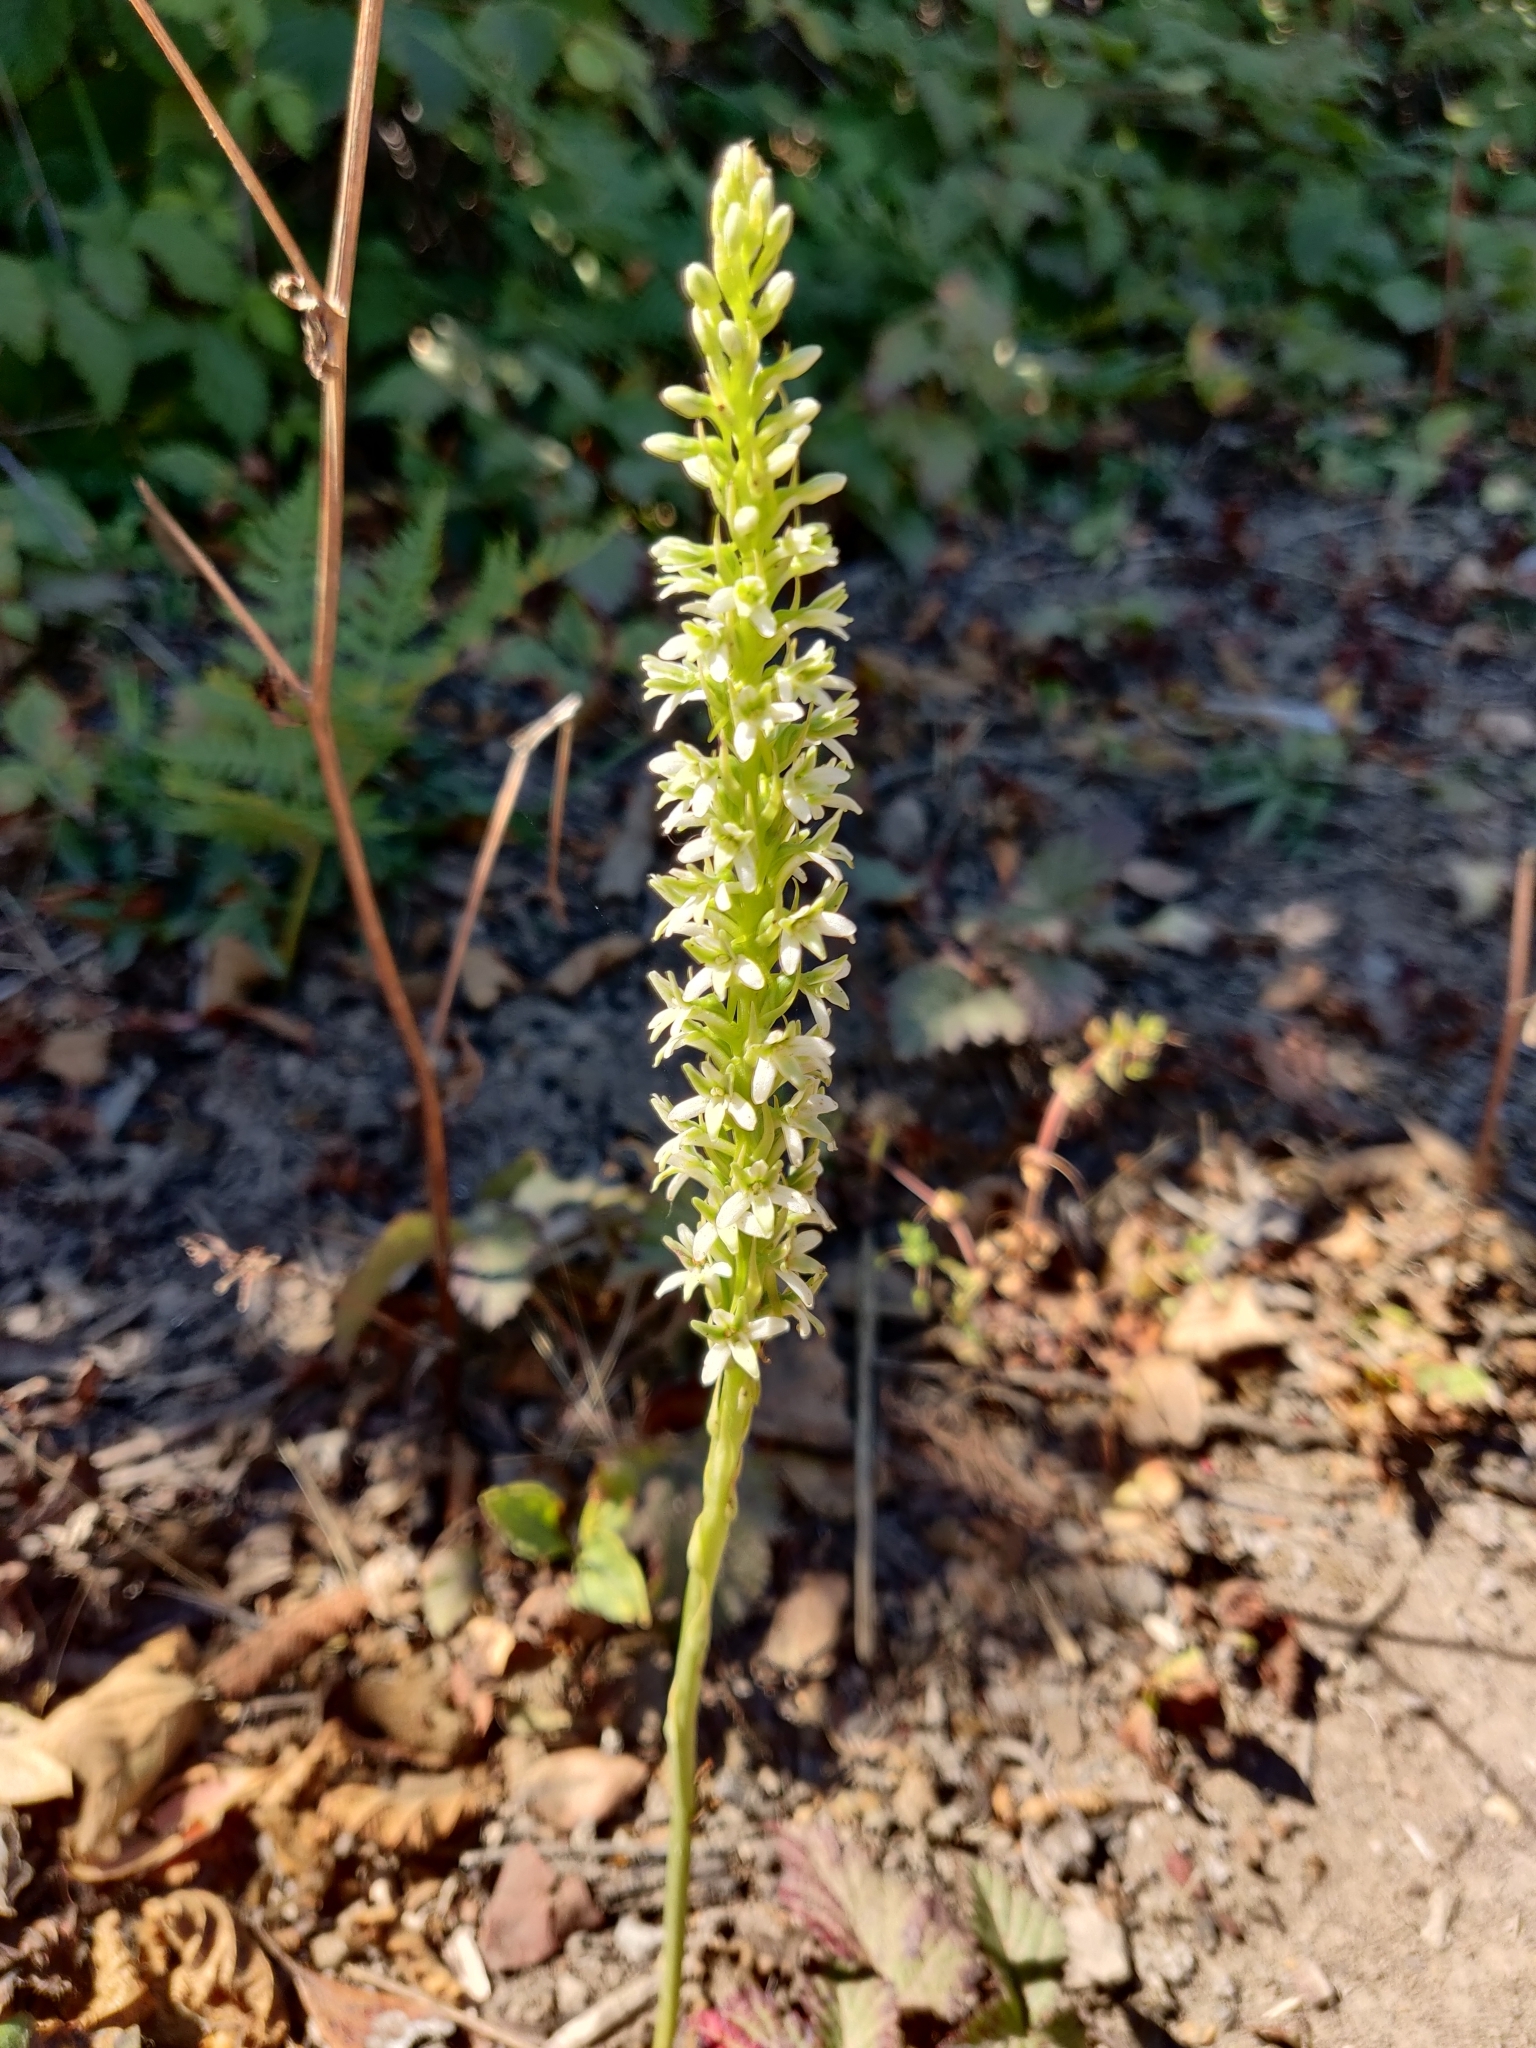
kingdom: Plantae
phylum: Tracheophyta
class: Liliopsida
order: Asparagales
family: Orchidaceae
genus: Platanthera
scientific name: Platanthera elegans
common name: Coast piperia
